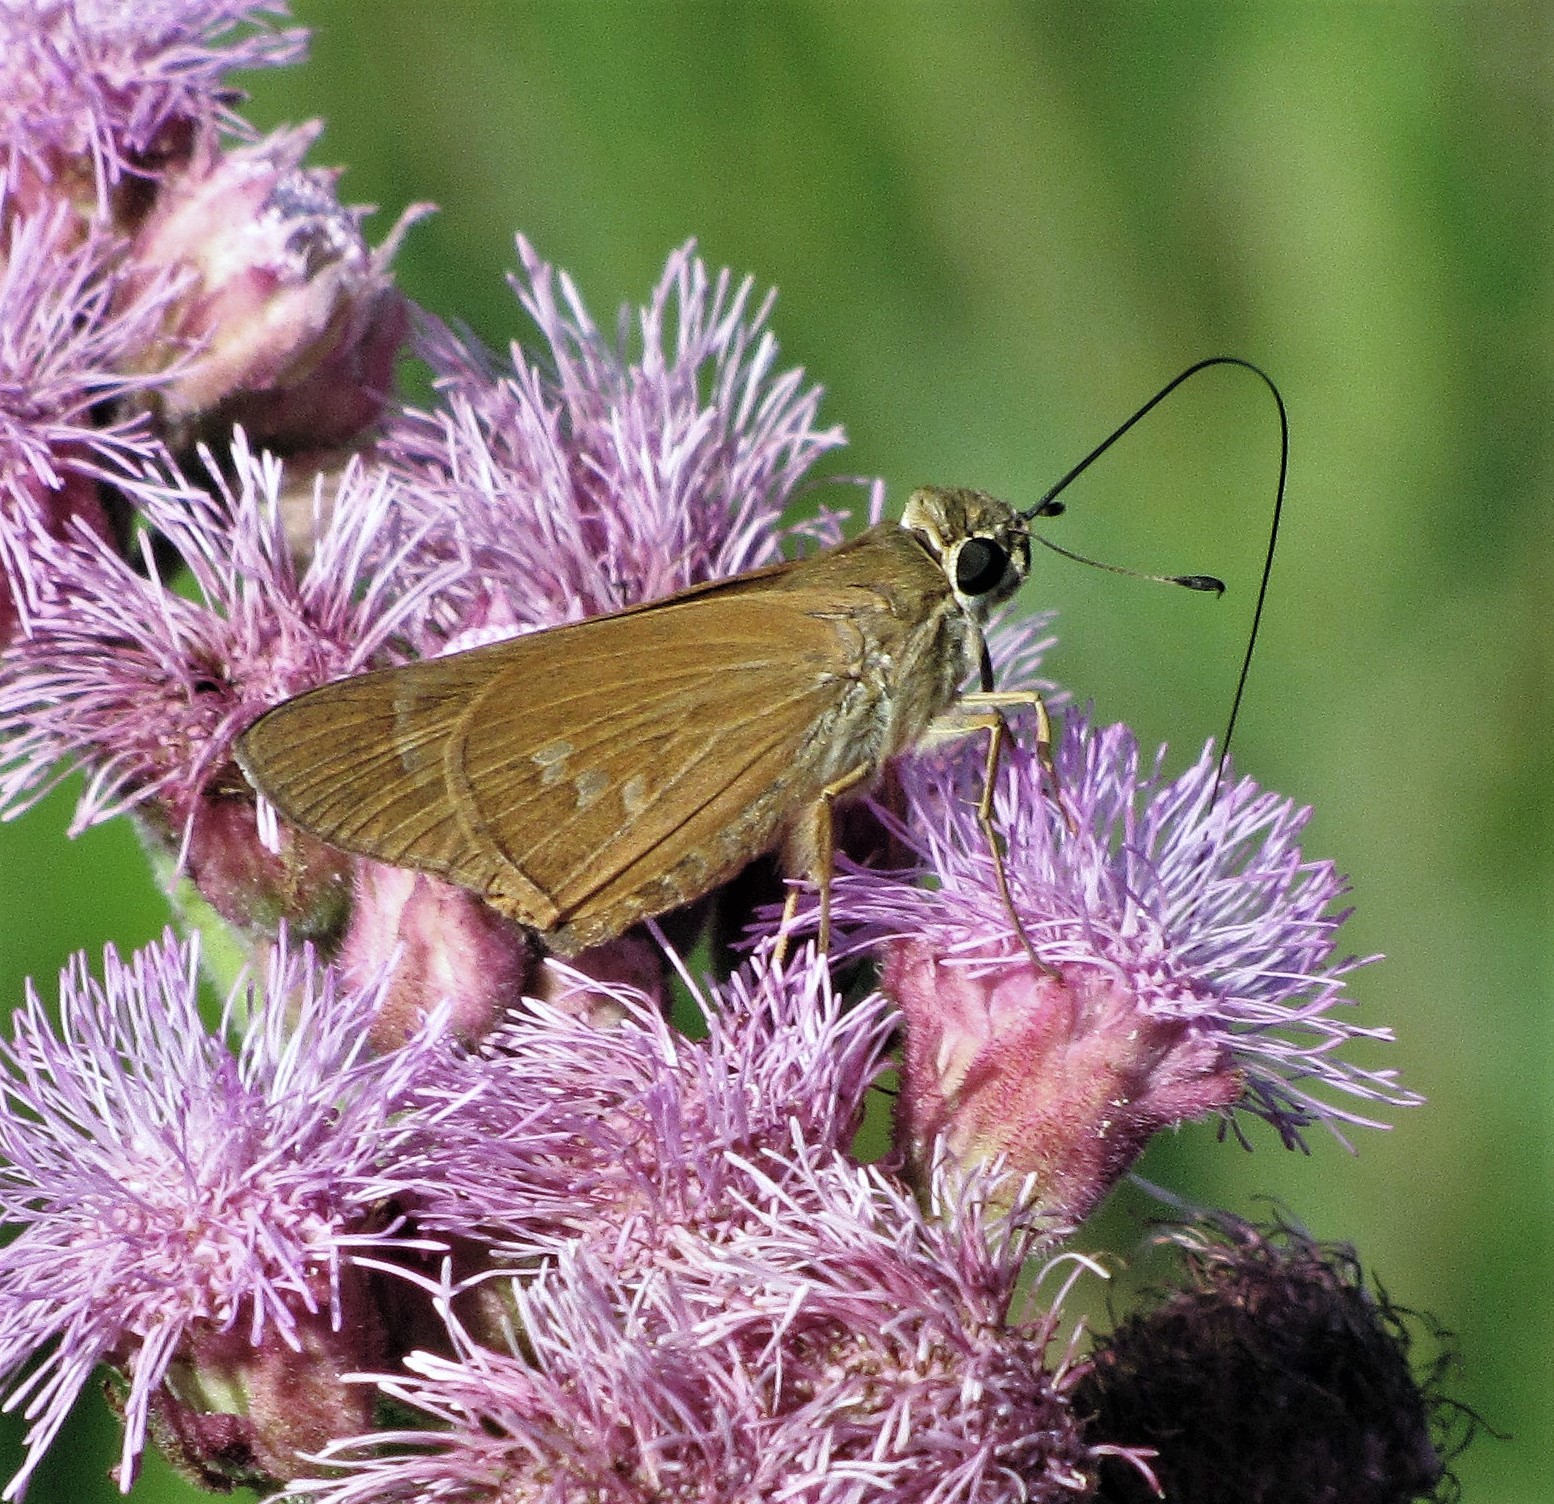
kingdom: Animalia
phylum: Arthropoda
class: Insecta
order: Lepidoptera
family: Hesperiidae
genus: Calpodes
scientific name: Calpodes ethlius
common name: Brazilian skipper
